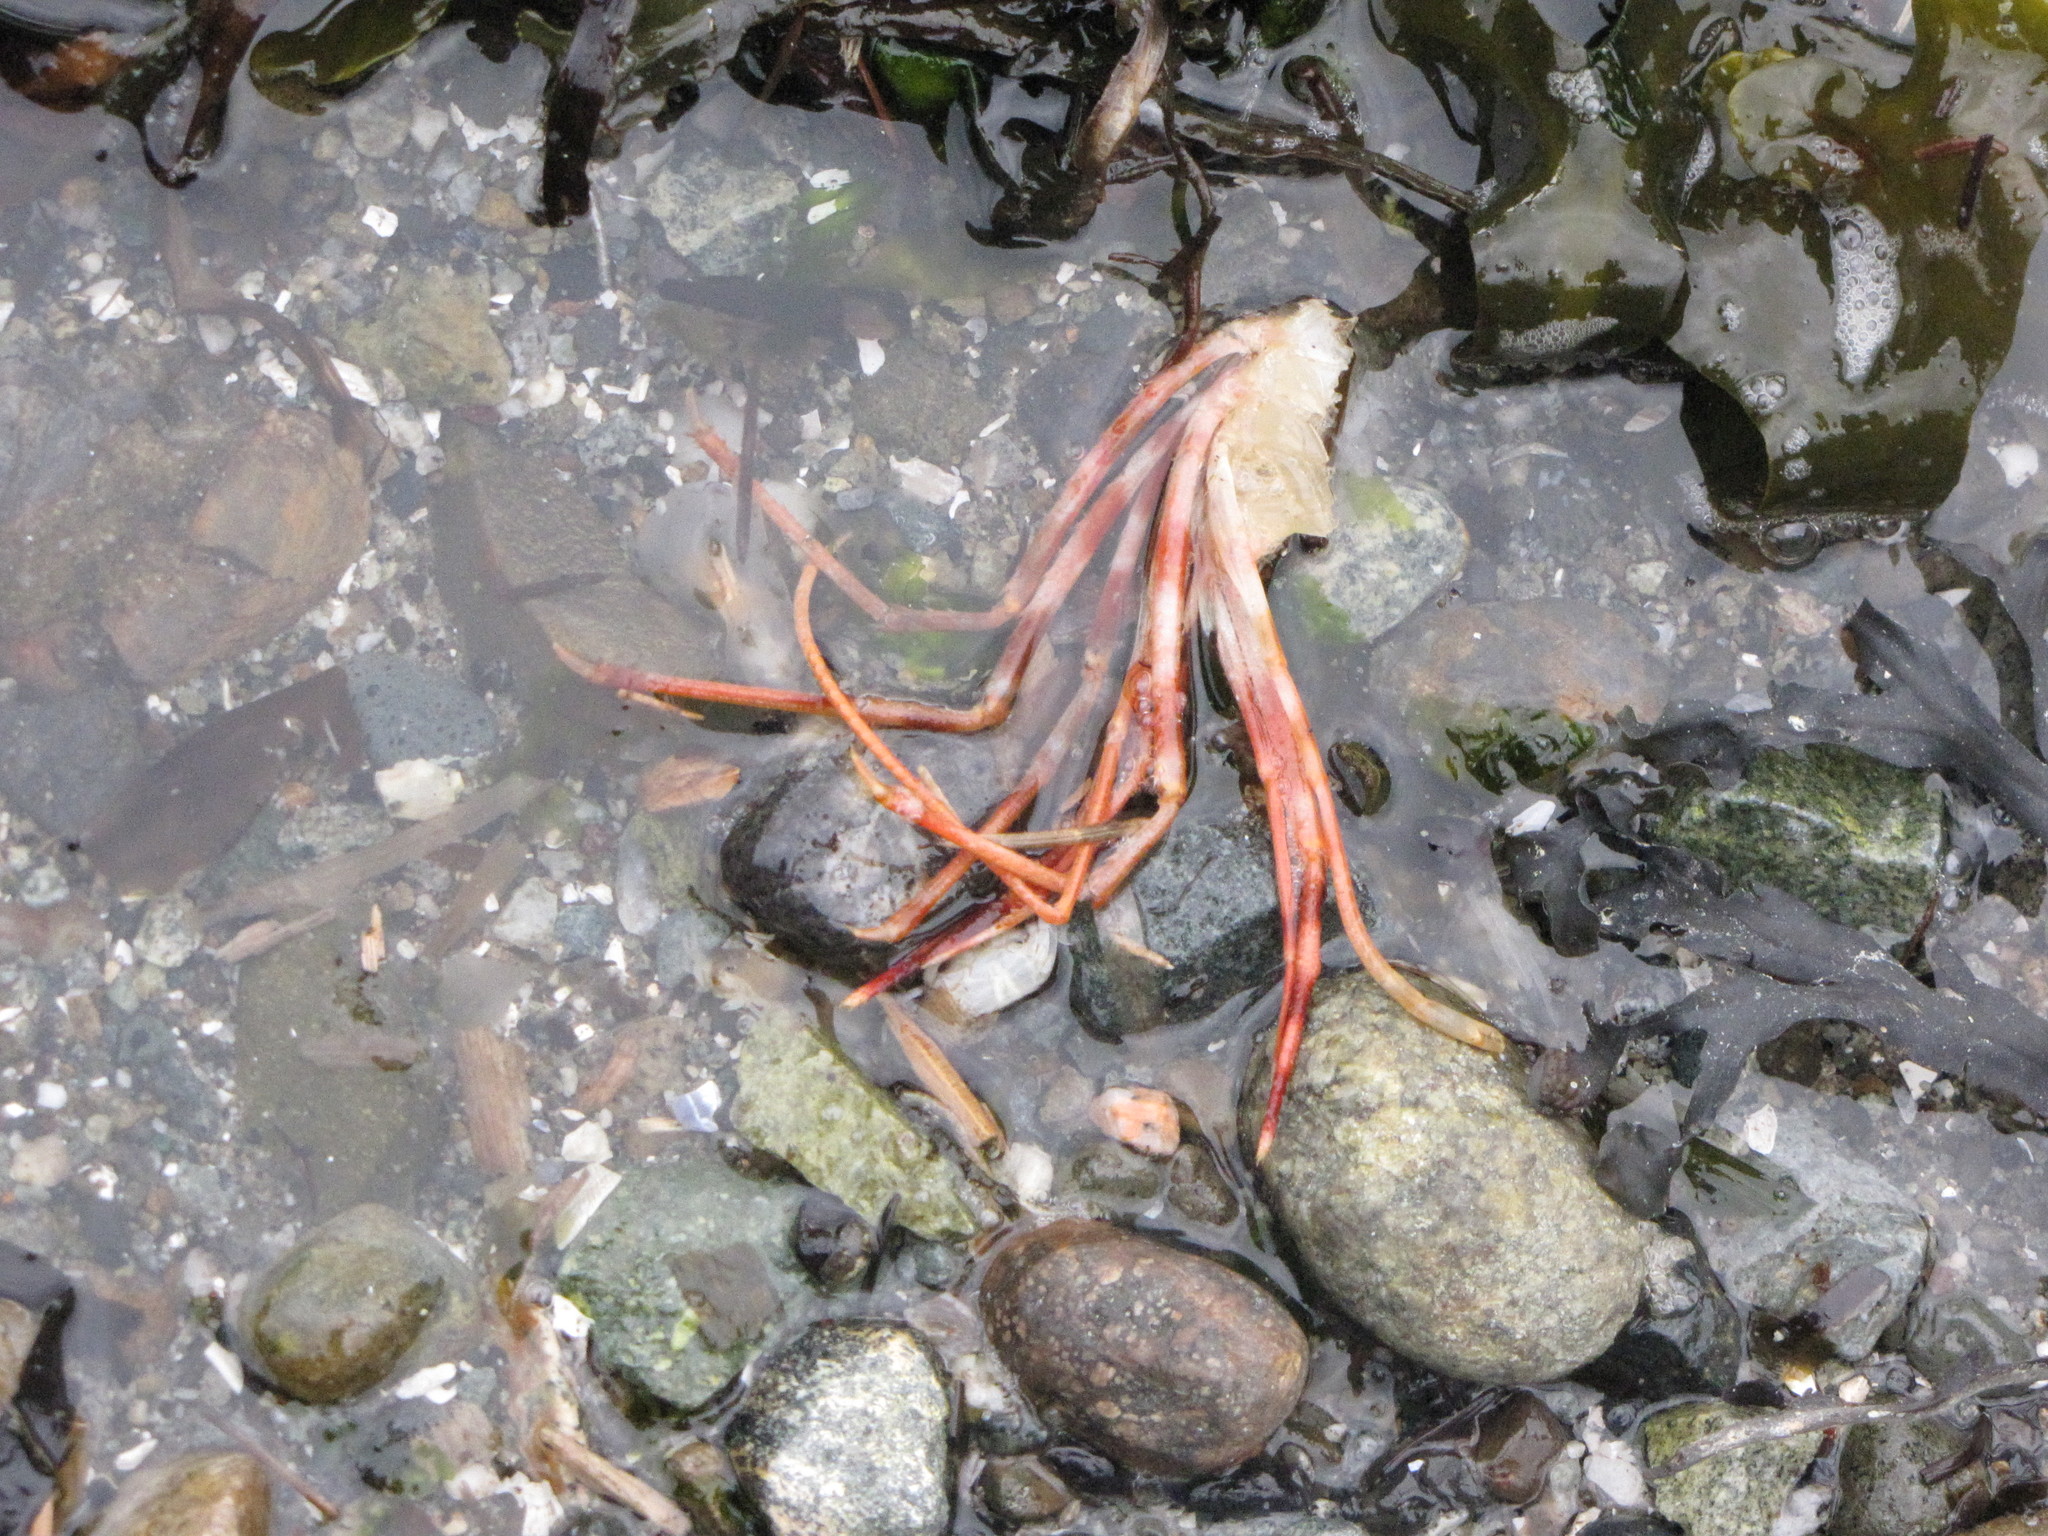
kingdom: Animalia
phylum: Arthropoda
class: Malacostraca
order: Decapoda
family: Pandalidae
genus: Pandalus
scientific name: Pandalus platyceros
